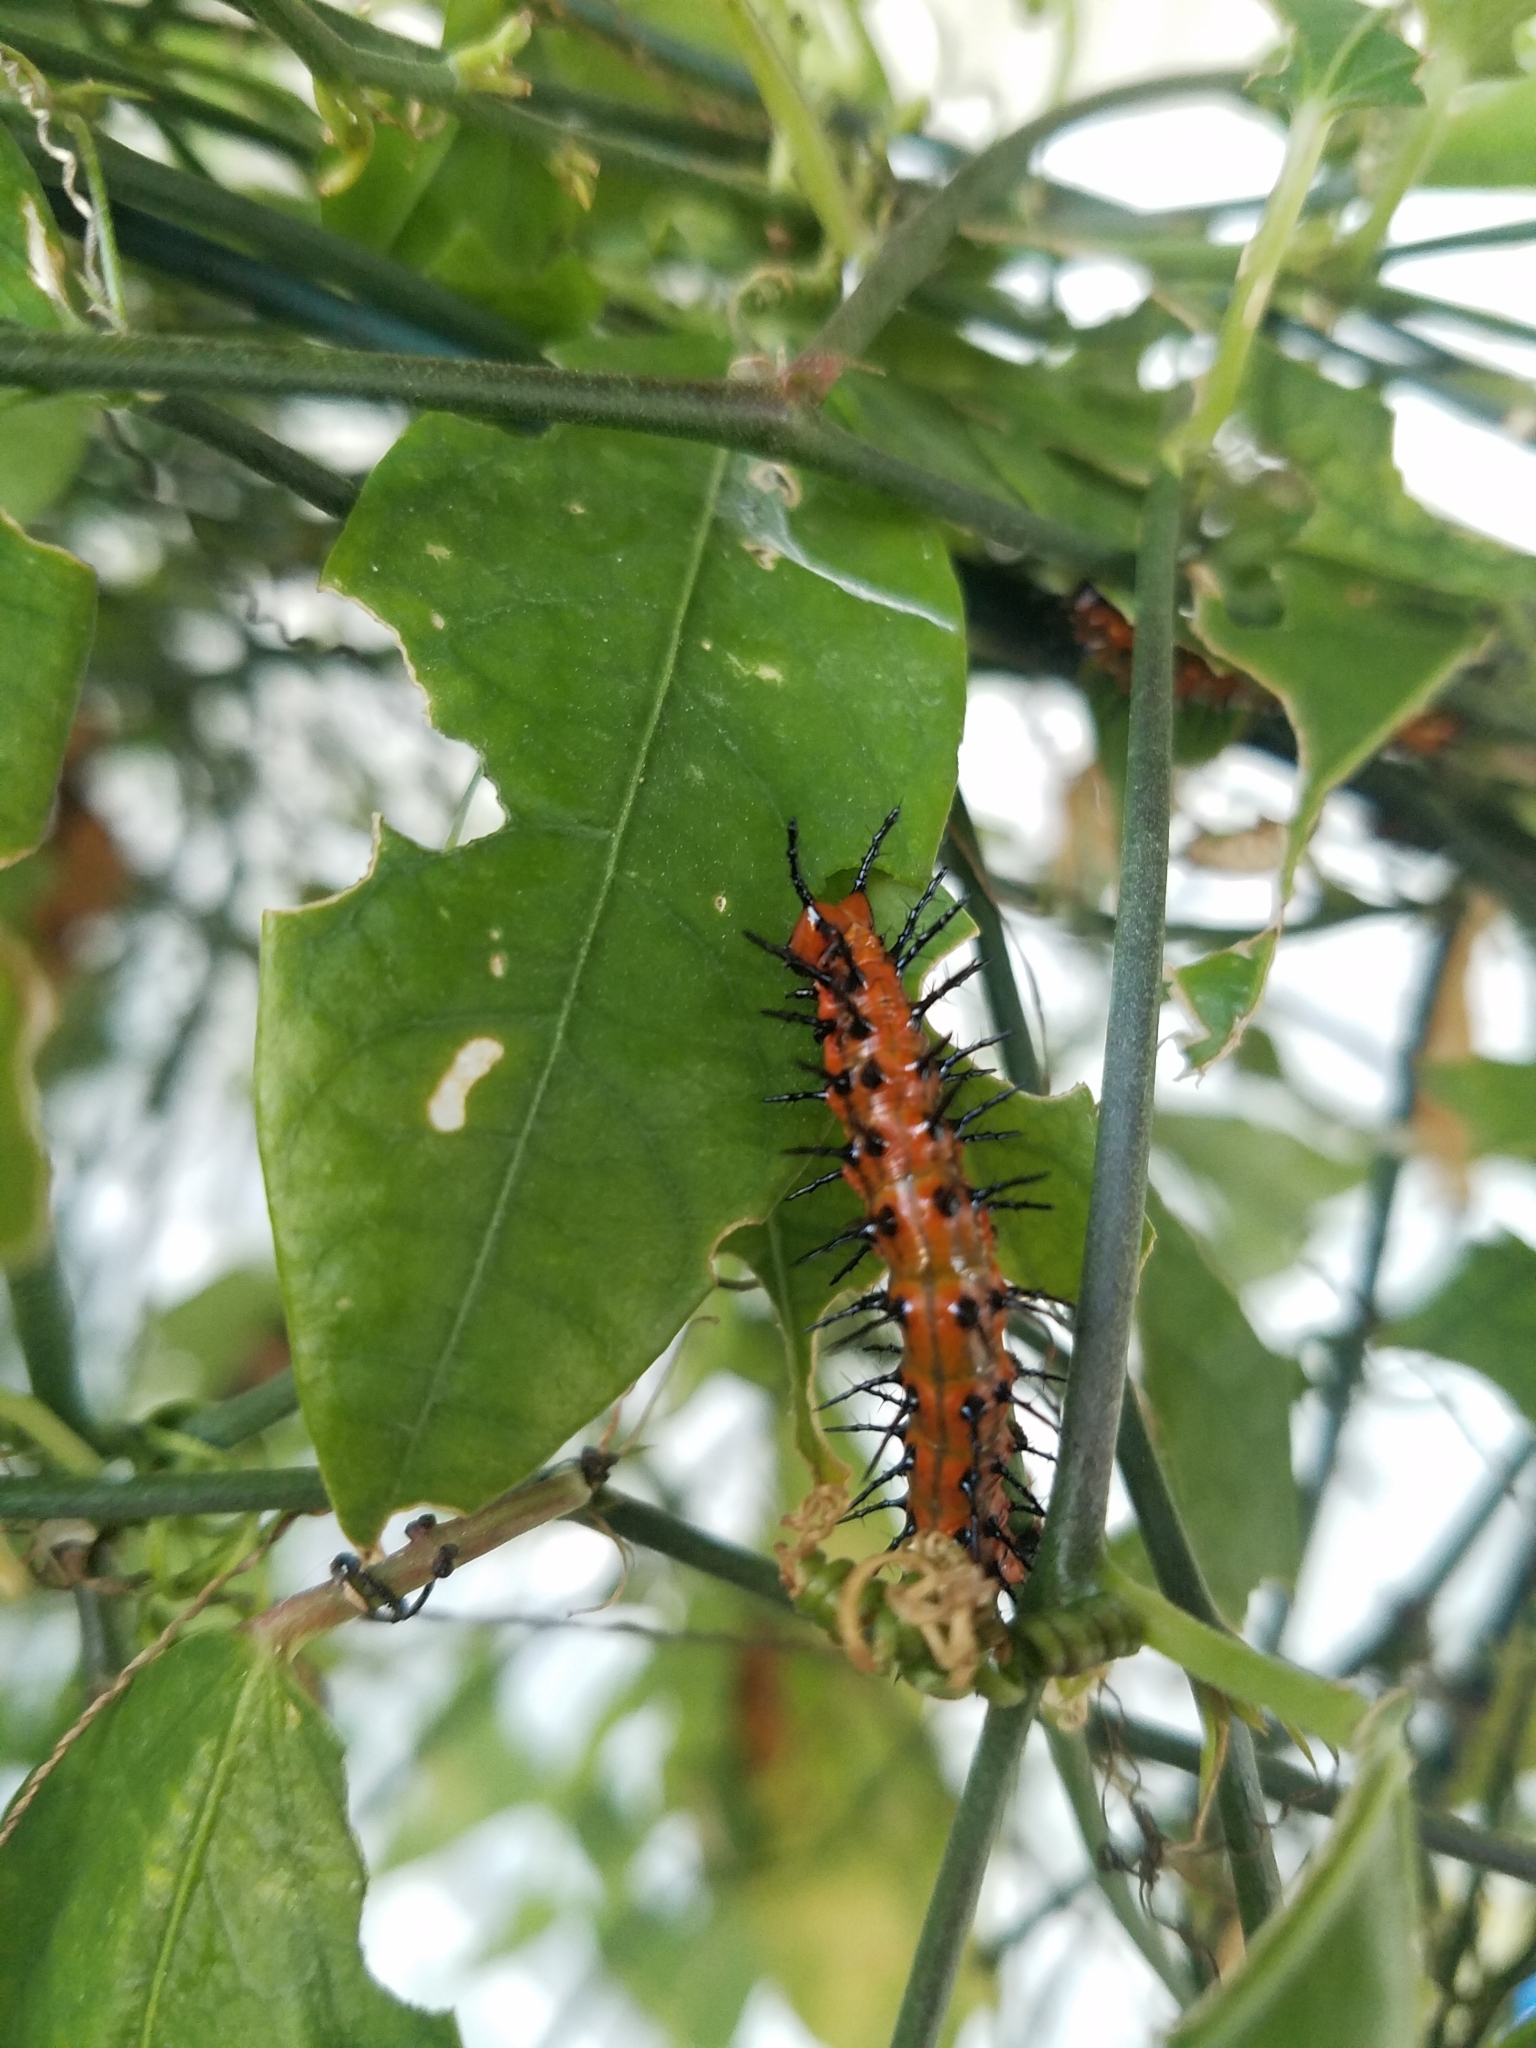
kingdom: Animalia
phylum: Arthropoda
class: Insecta
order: Lepidoptera
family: Nymphalidae
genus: Dione
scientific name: Dione vanillae
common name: Gulf fritillary
